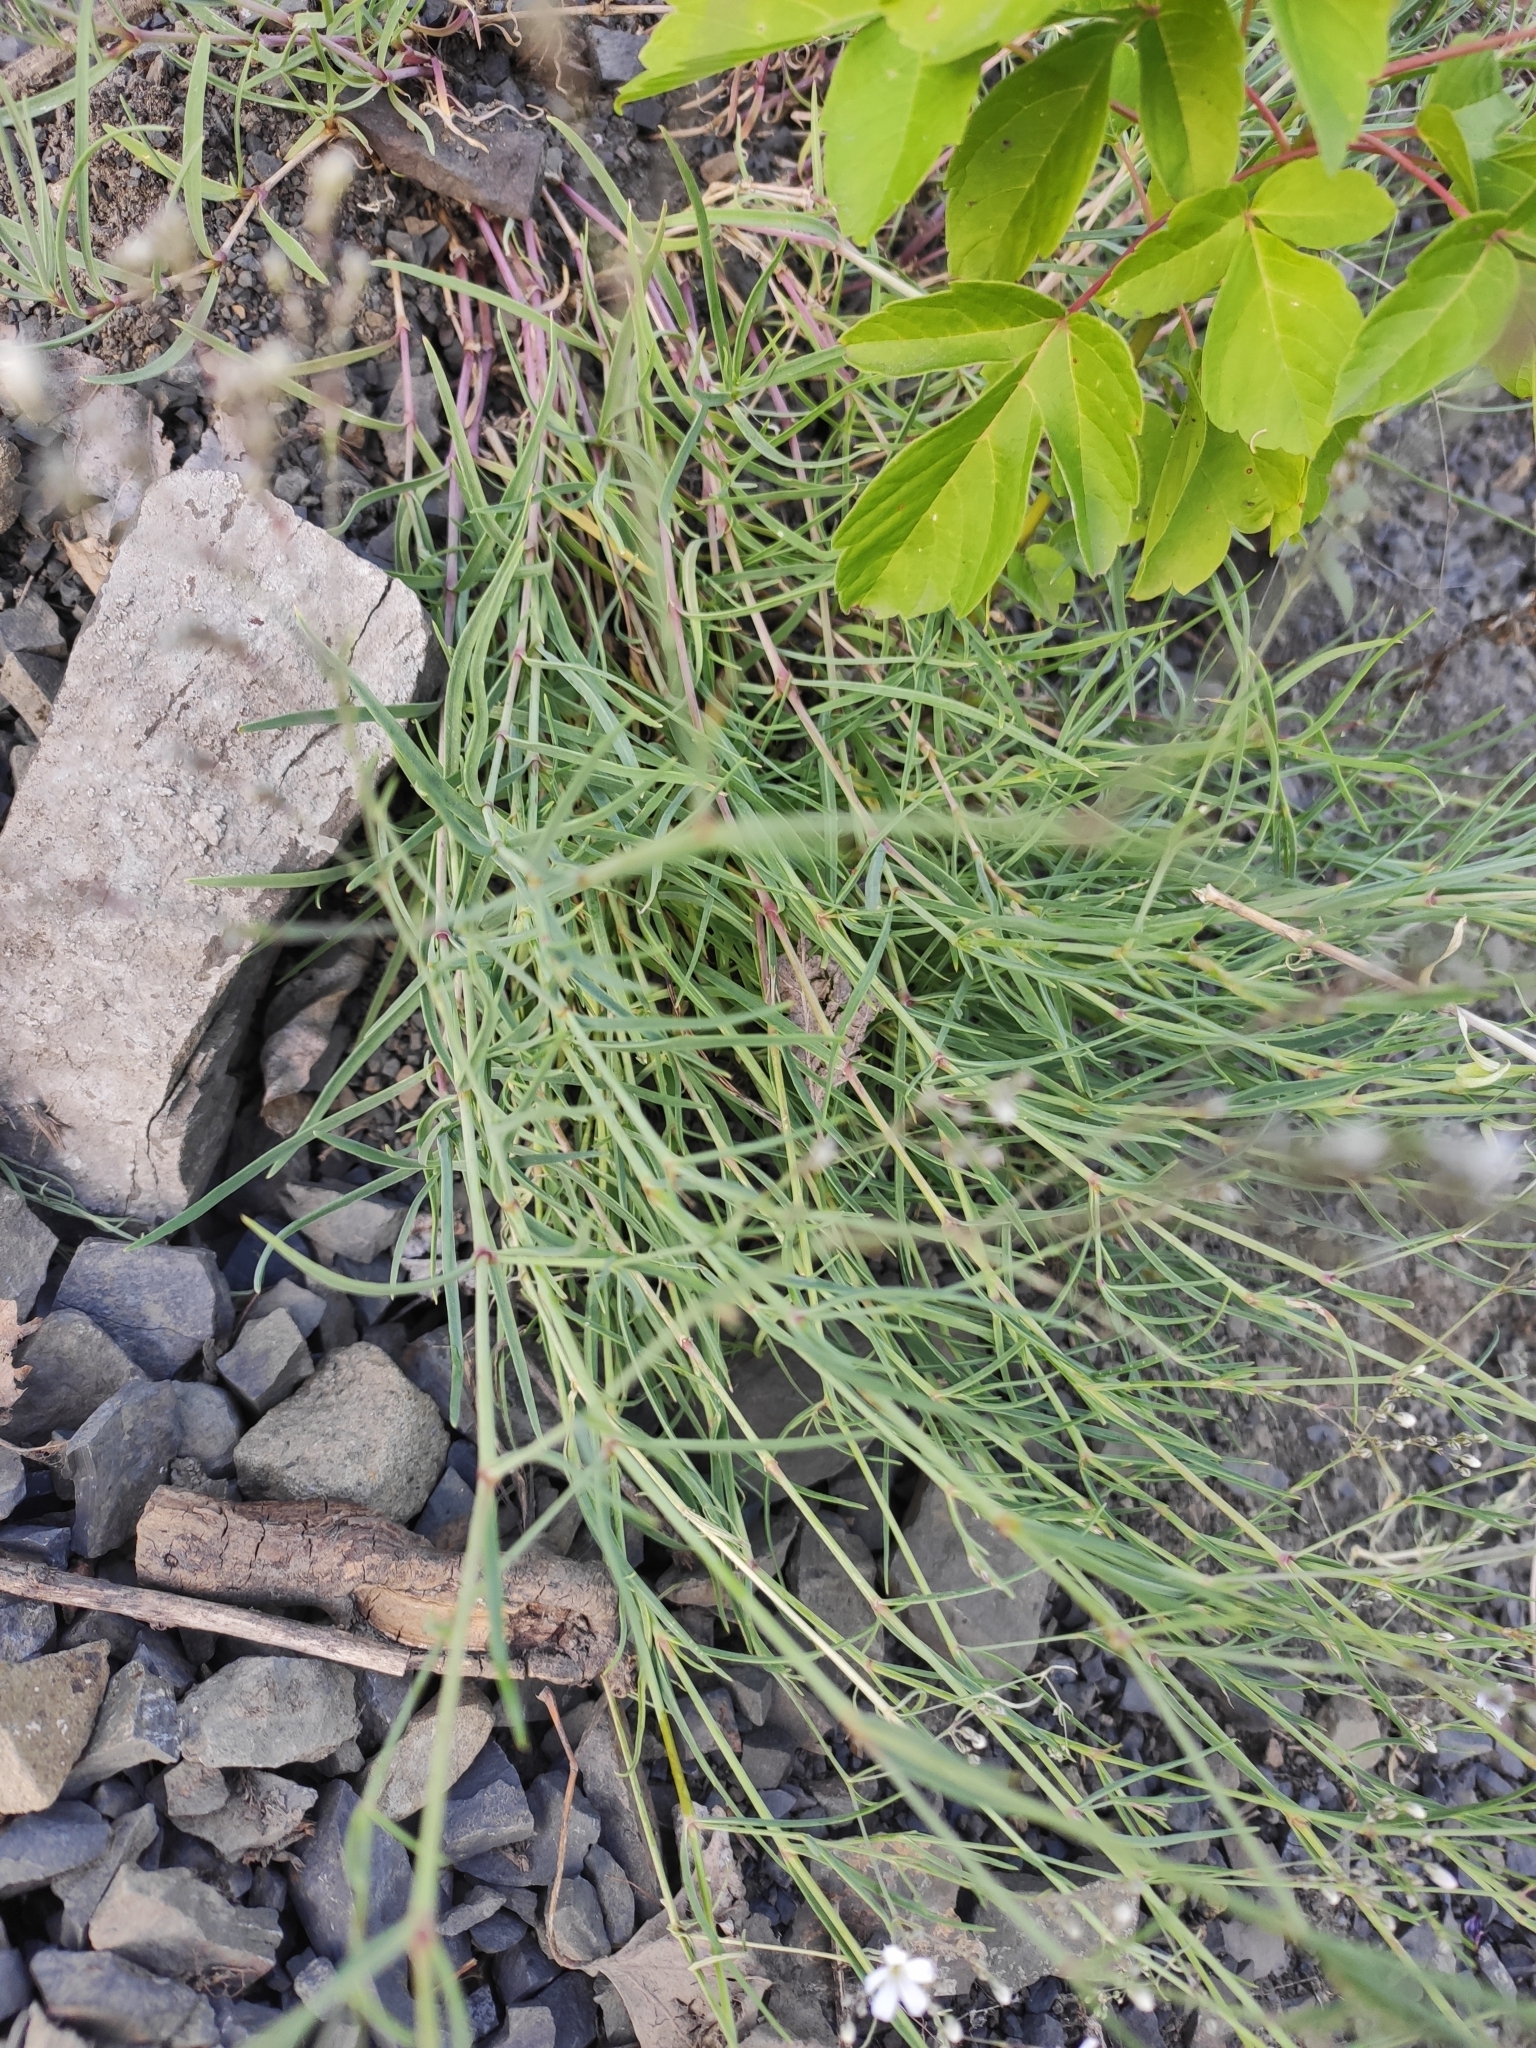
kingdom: Plantae
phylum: Tracheophyta
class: Magnoliopsida
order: Caryophyllales
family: Caryophyllaceae
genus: Gypsophila
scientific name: Gypsophila patrinii
